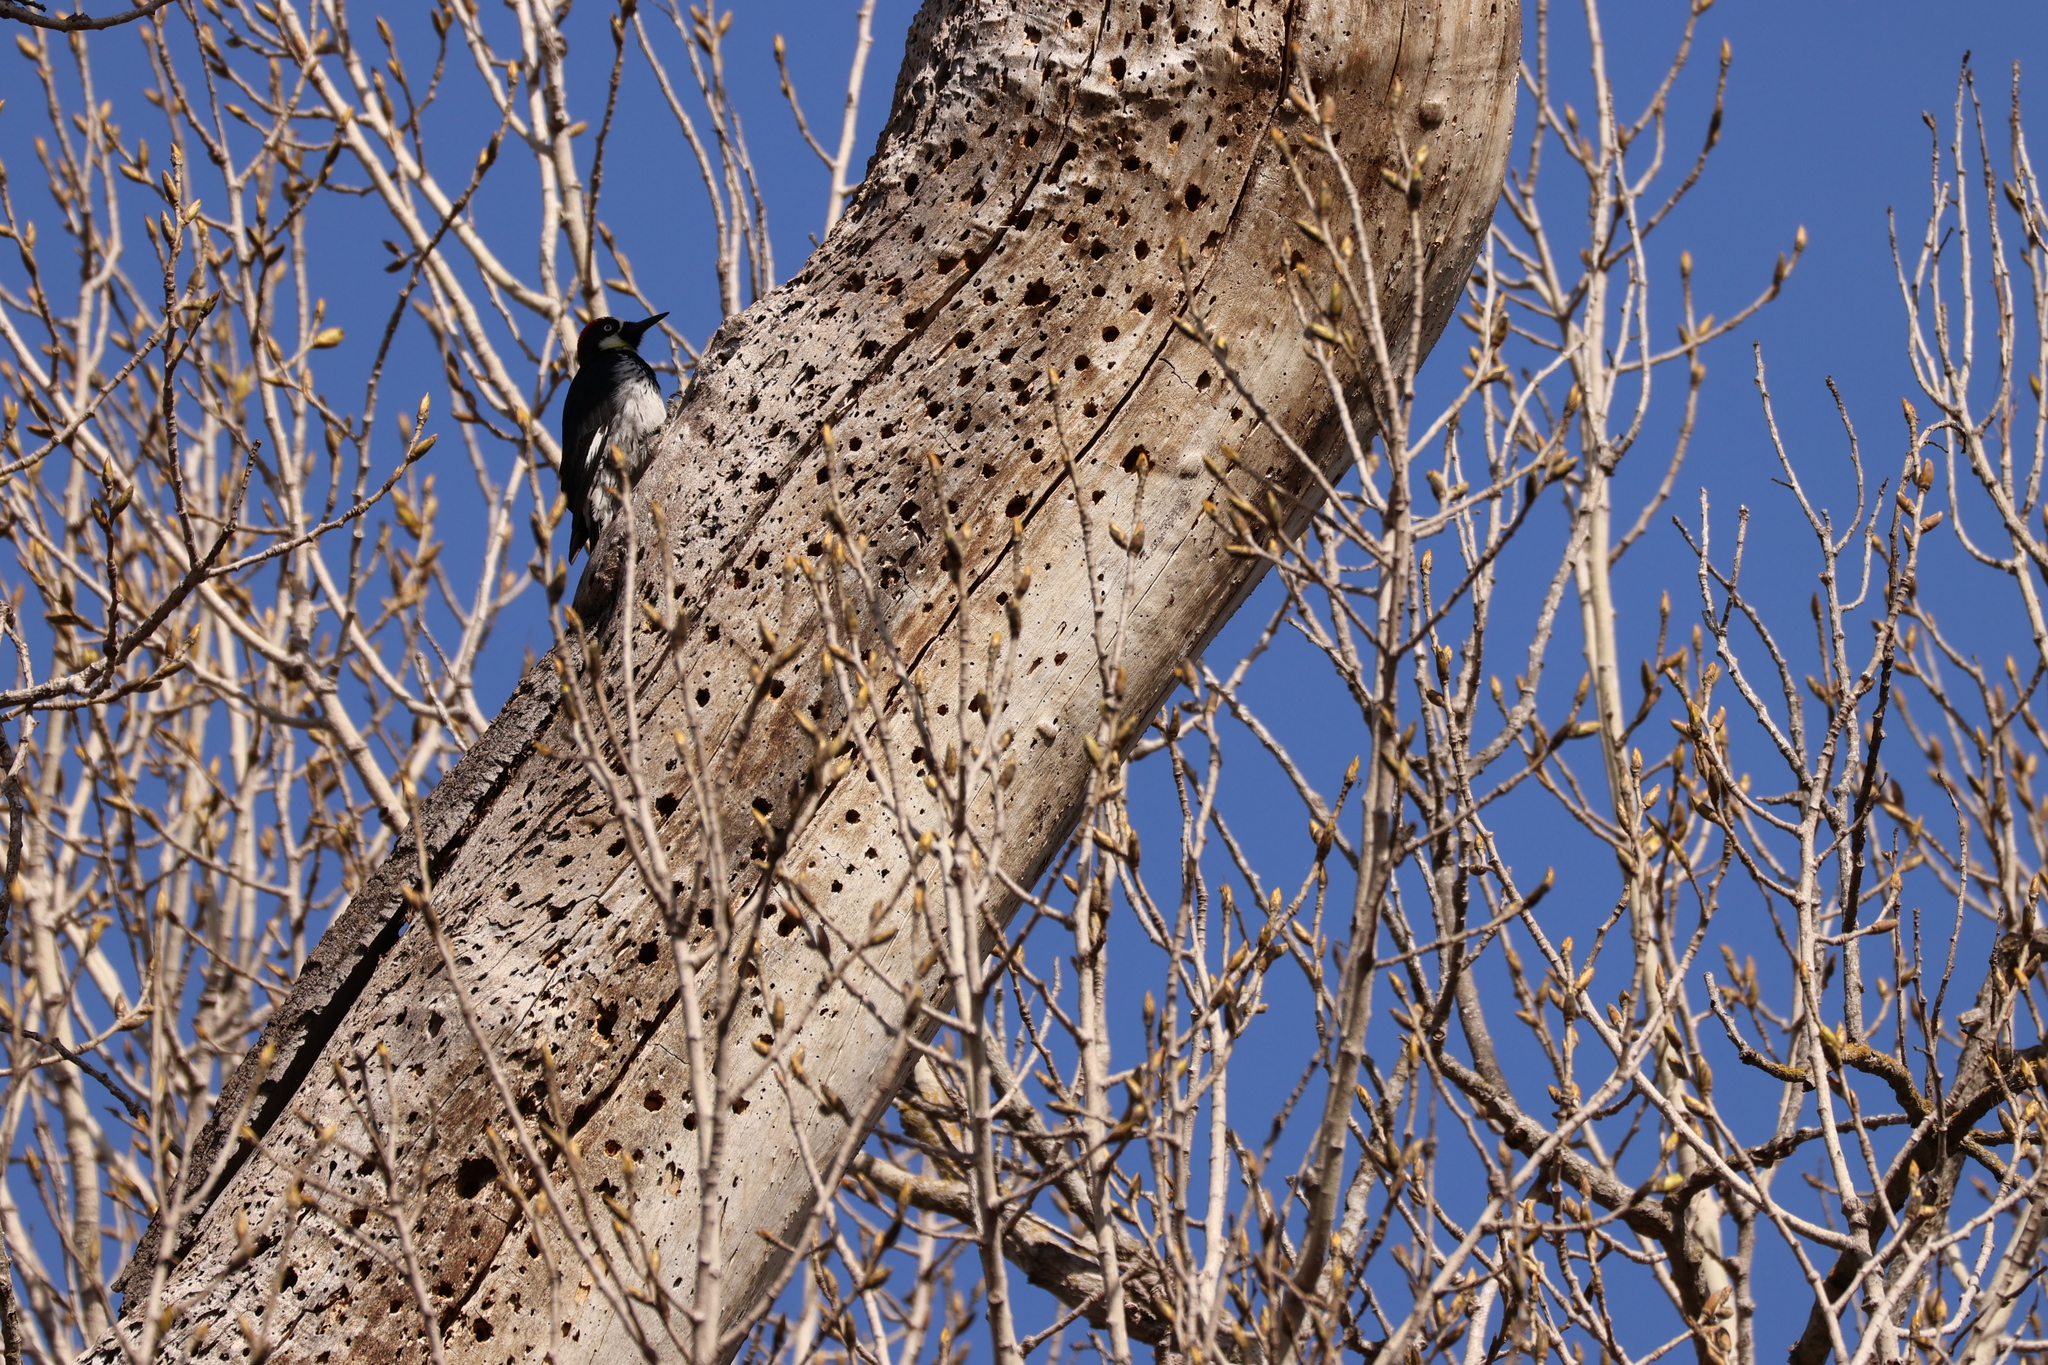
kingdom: Animalia
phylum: Chordata
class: Aves
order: Piciformes
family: Picidae
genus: Melanerpes
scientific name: Melanerpes formicivorus
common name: Acorn woodpecker
